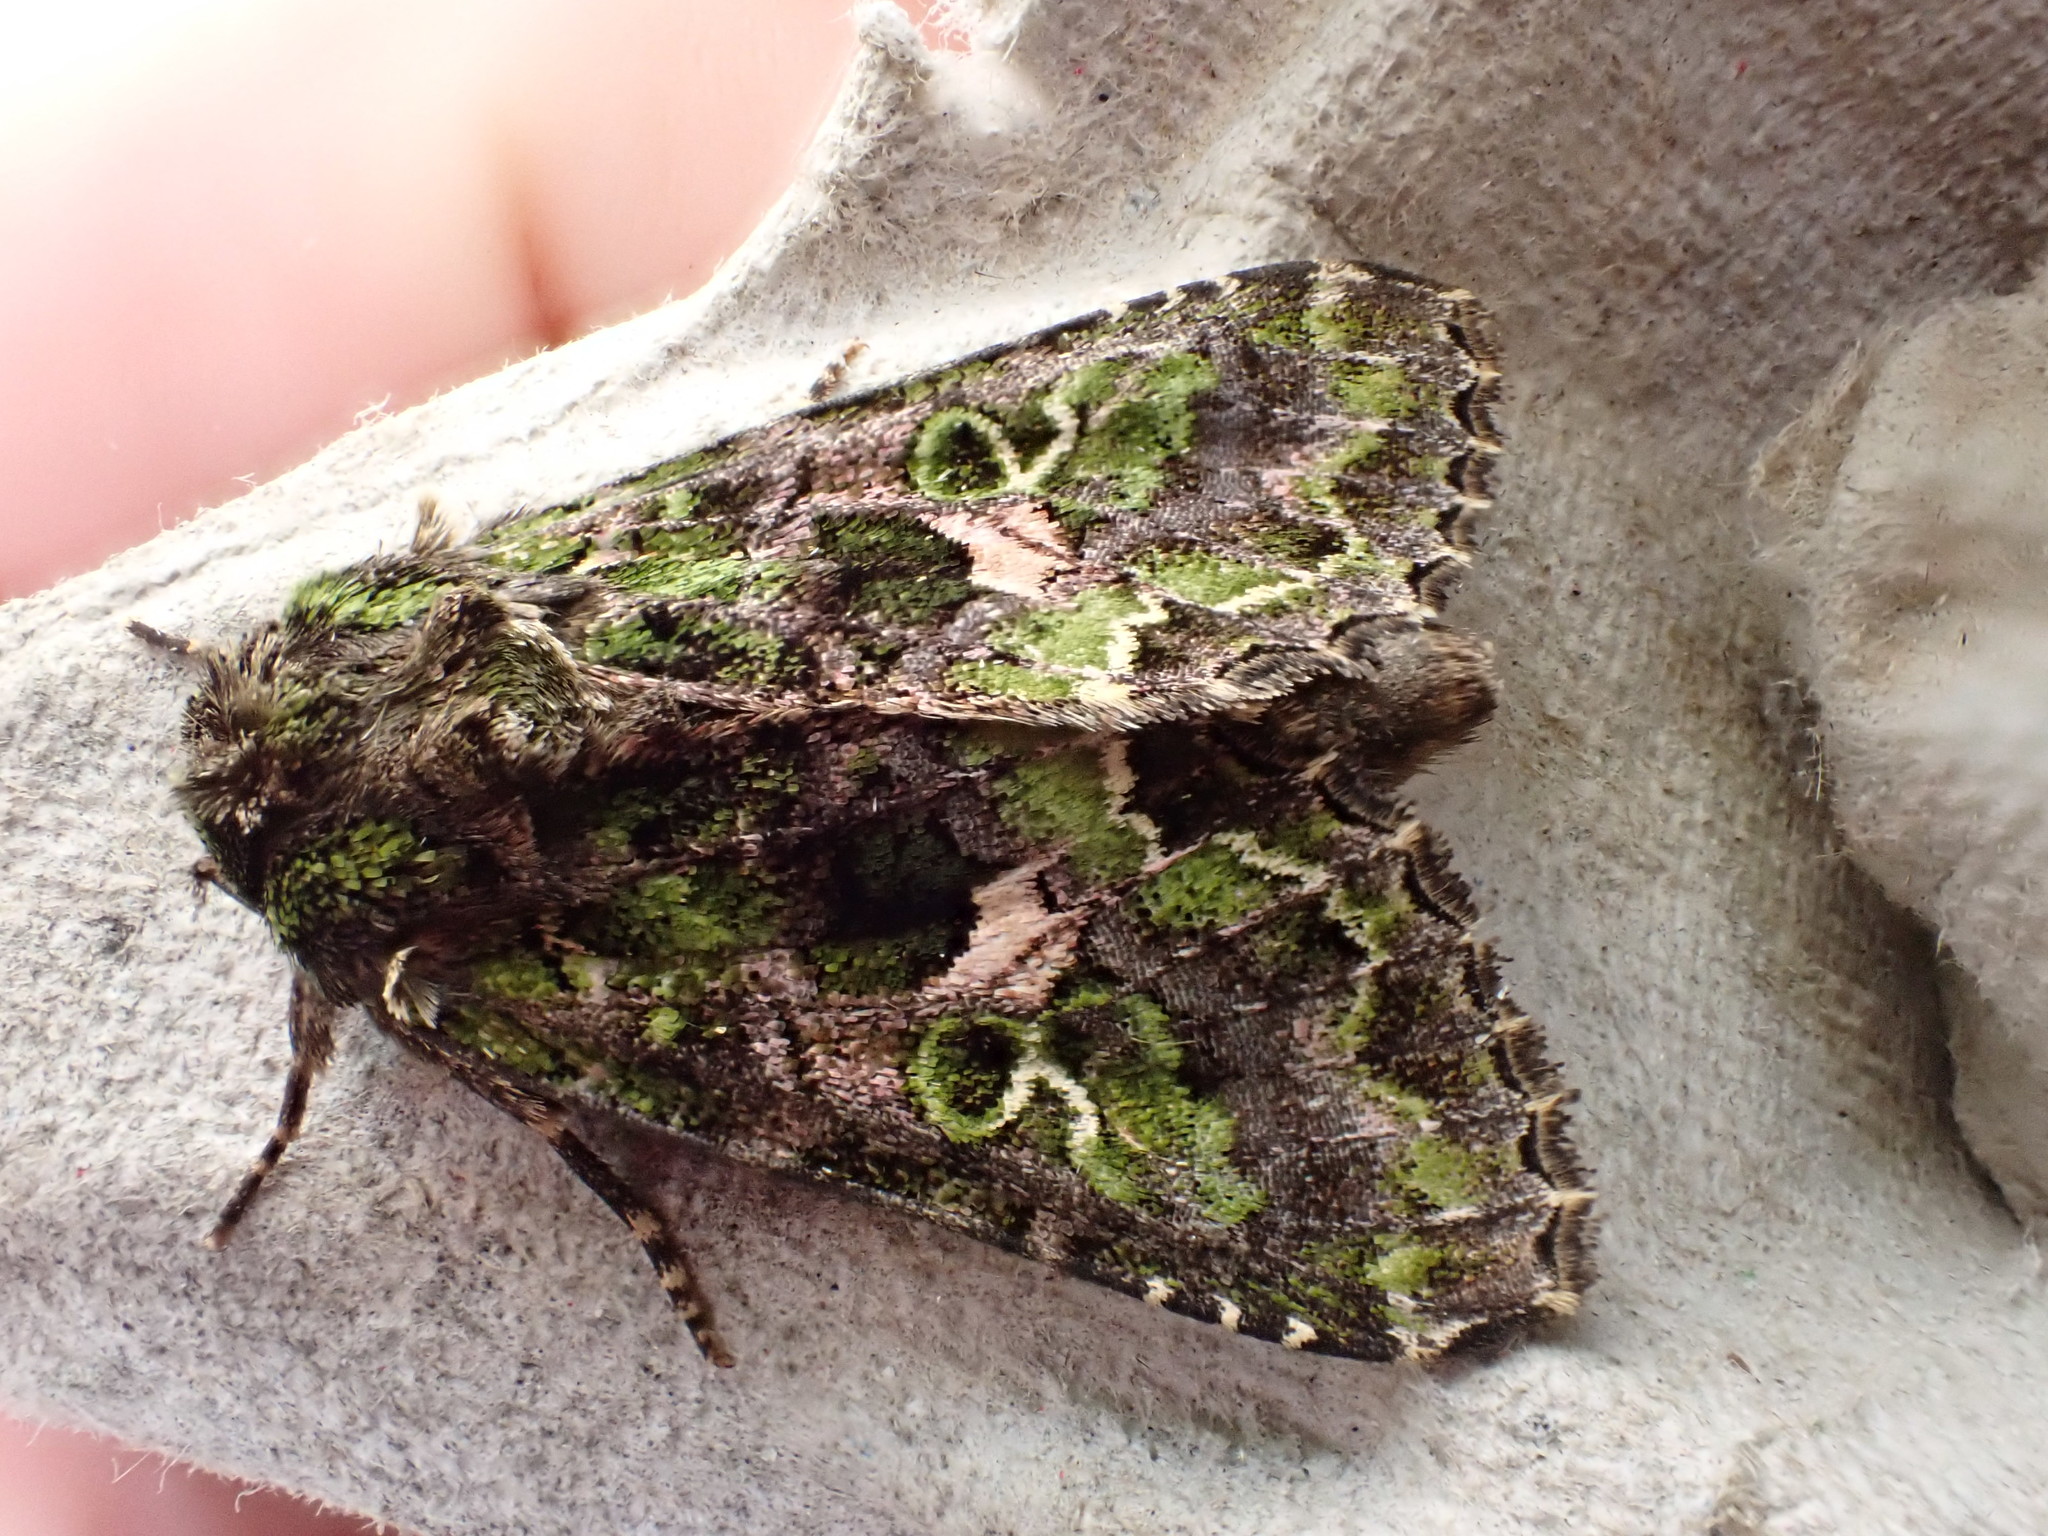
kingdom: Animalia
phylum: Arthropoda
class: Insecta
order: Lepidoptera
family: Noctuidae
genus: Trachea
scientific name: Trachea atriplicis
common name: Orache moth
